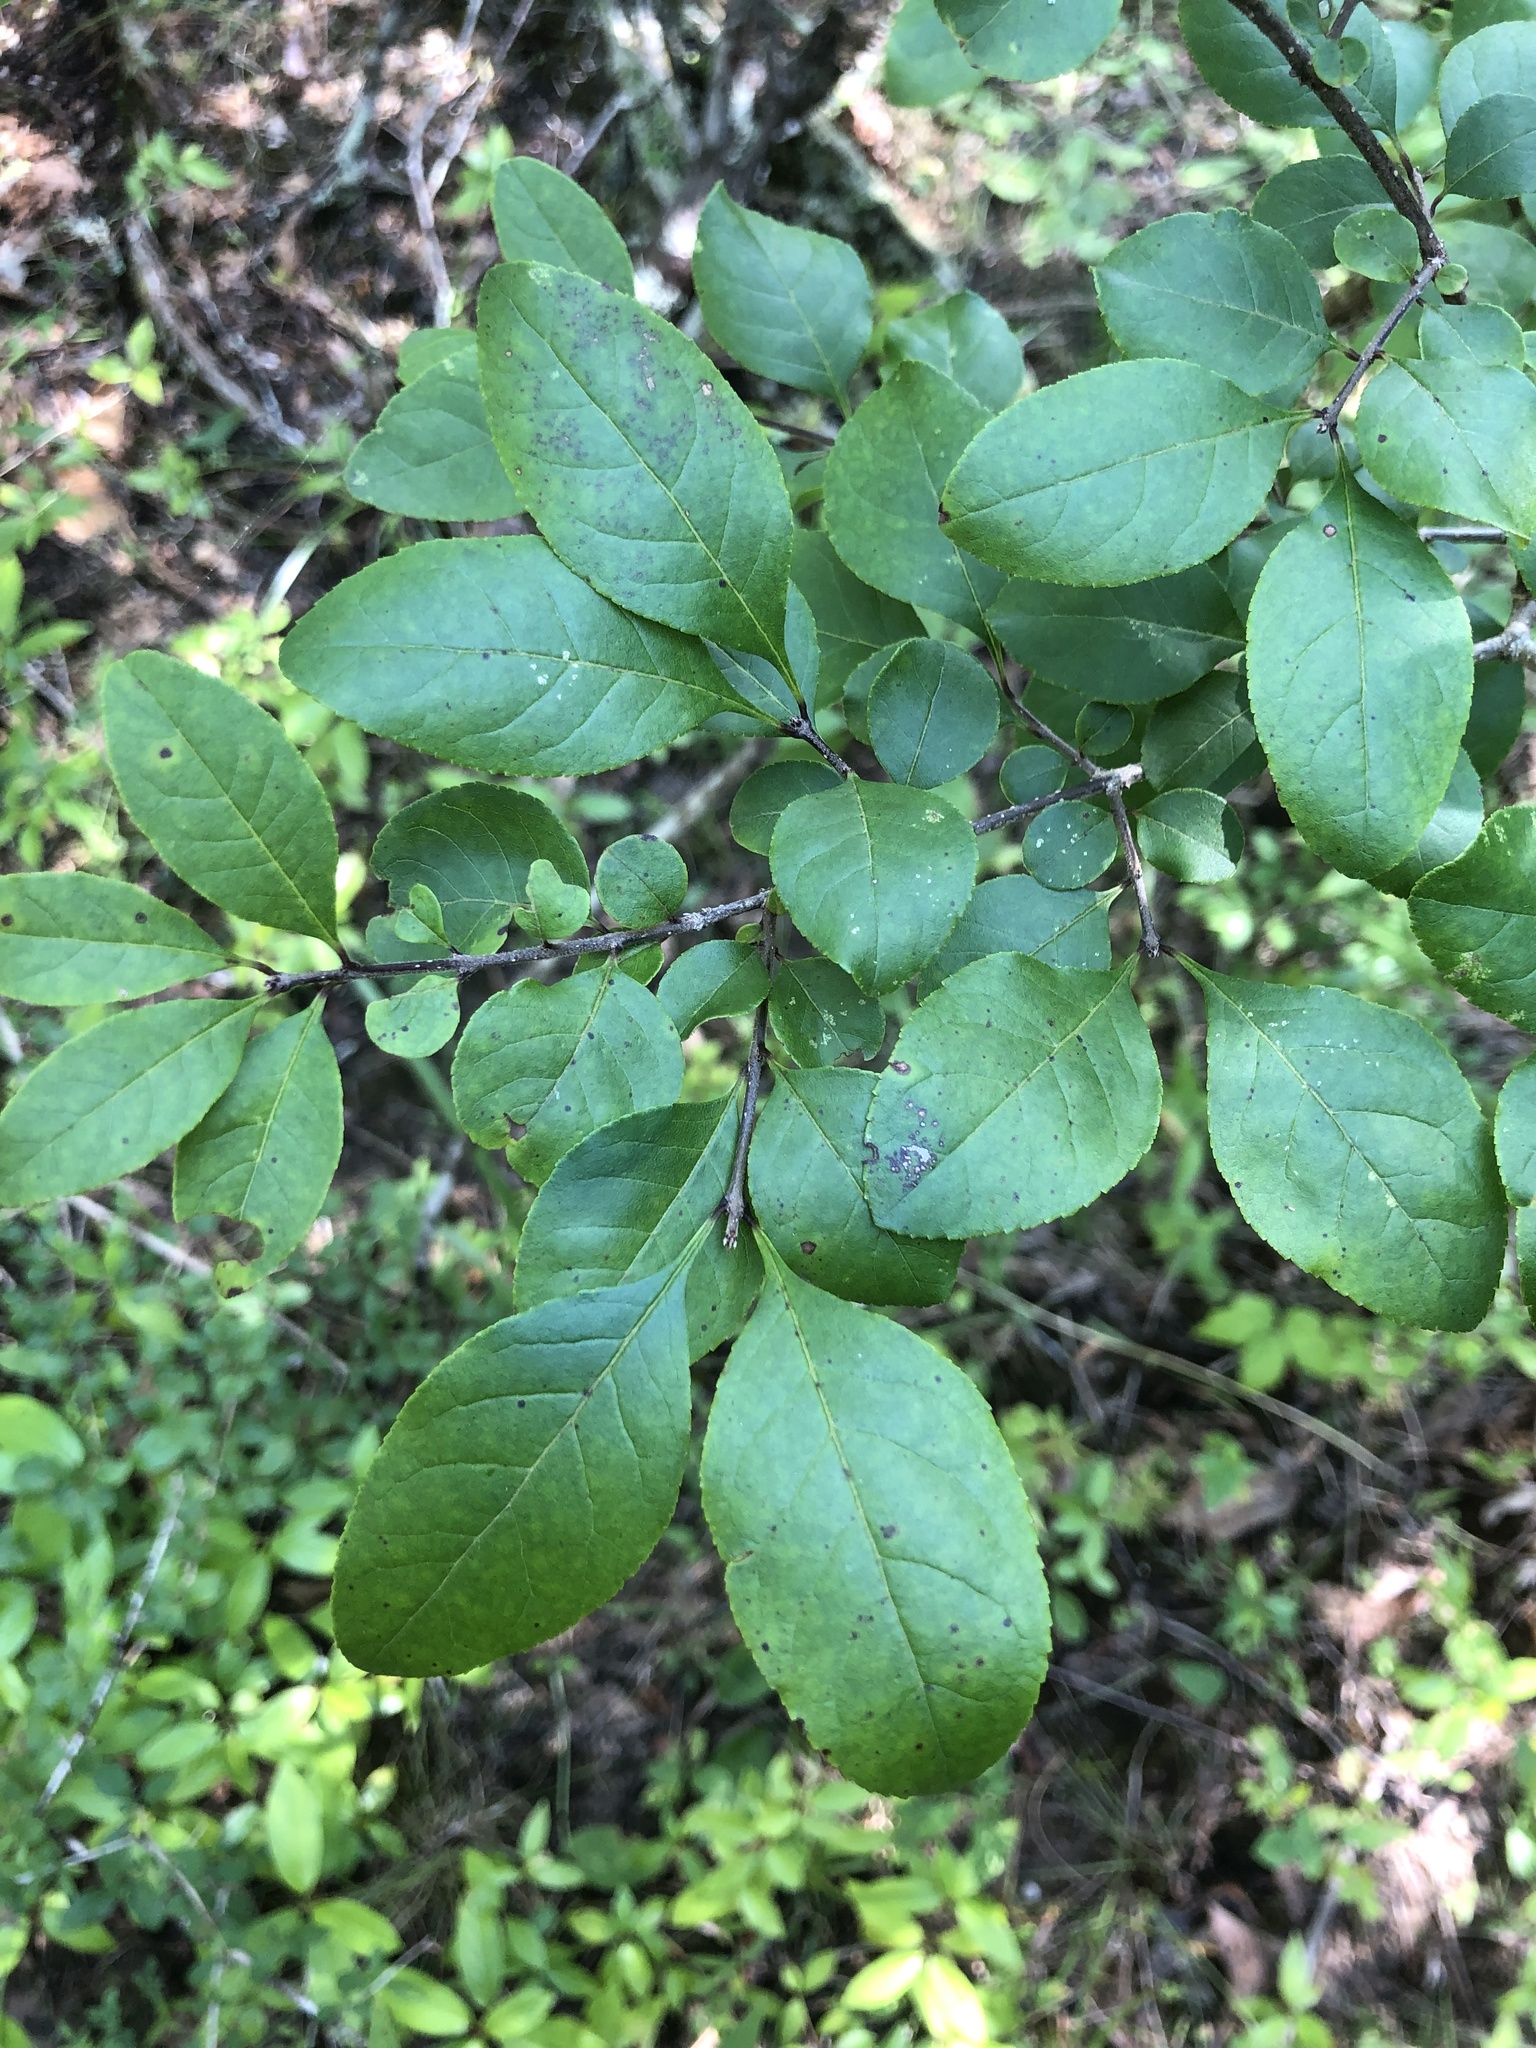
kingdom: Plantae
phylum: Tracheophyta
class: Magnoliopsida
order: Lamiales
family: Oleaceae
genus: Forestiera
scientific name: Forestiera ligustrina
